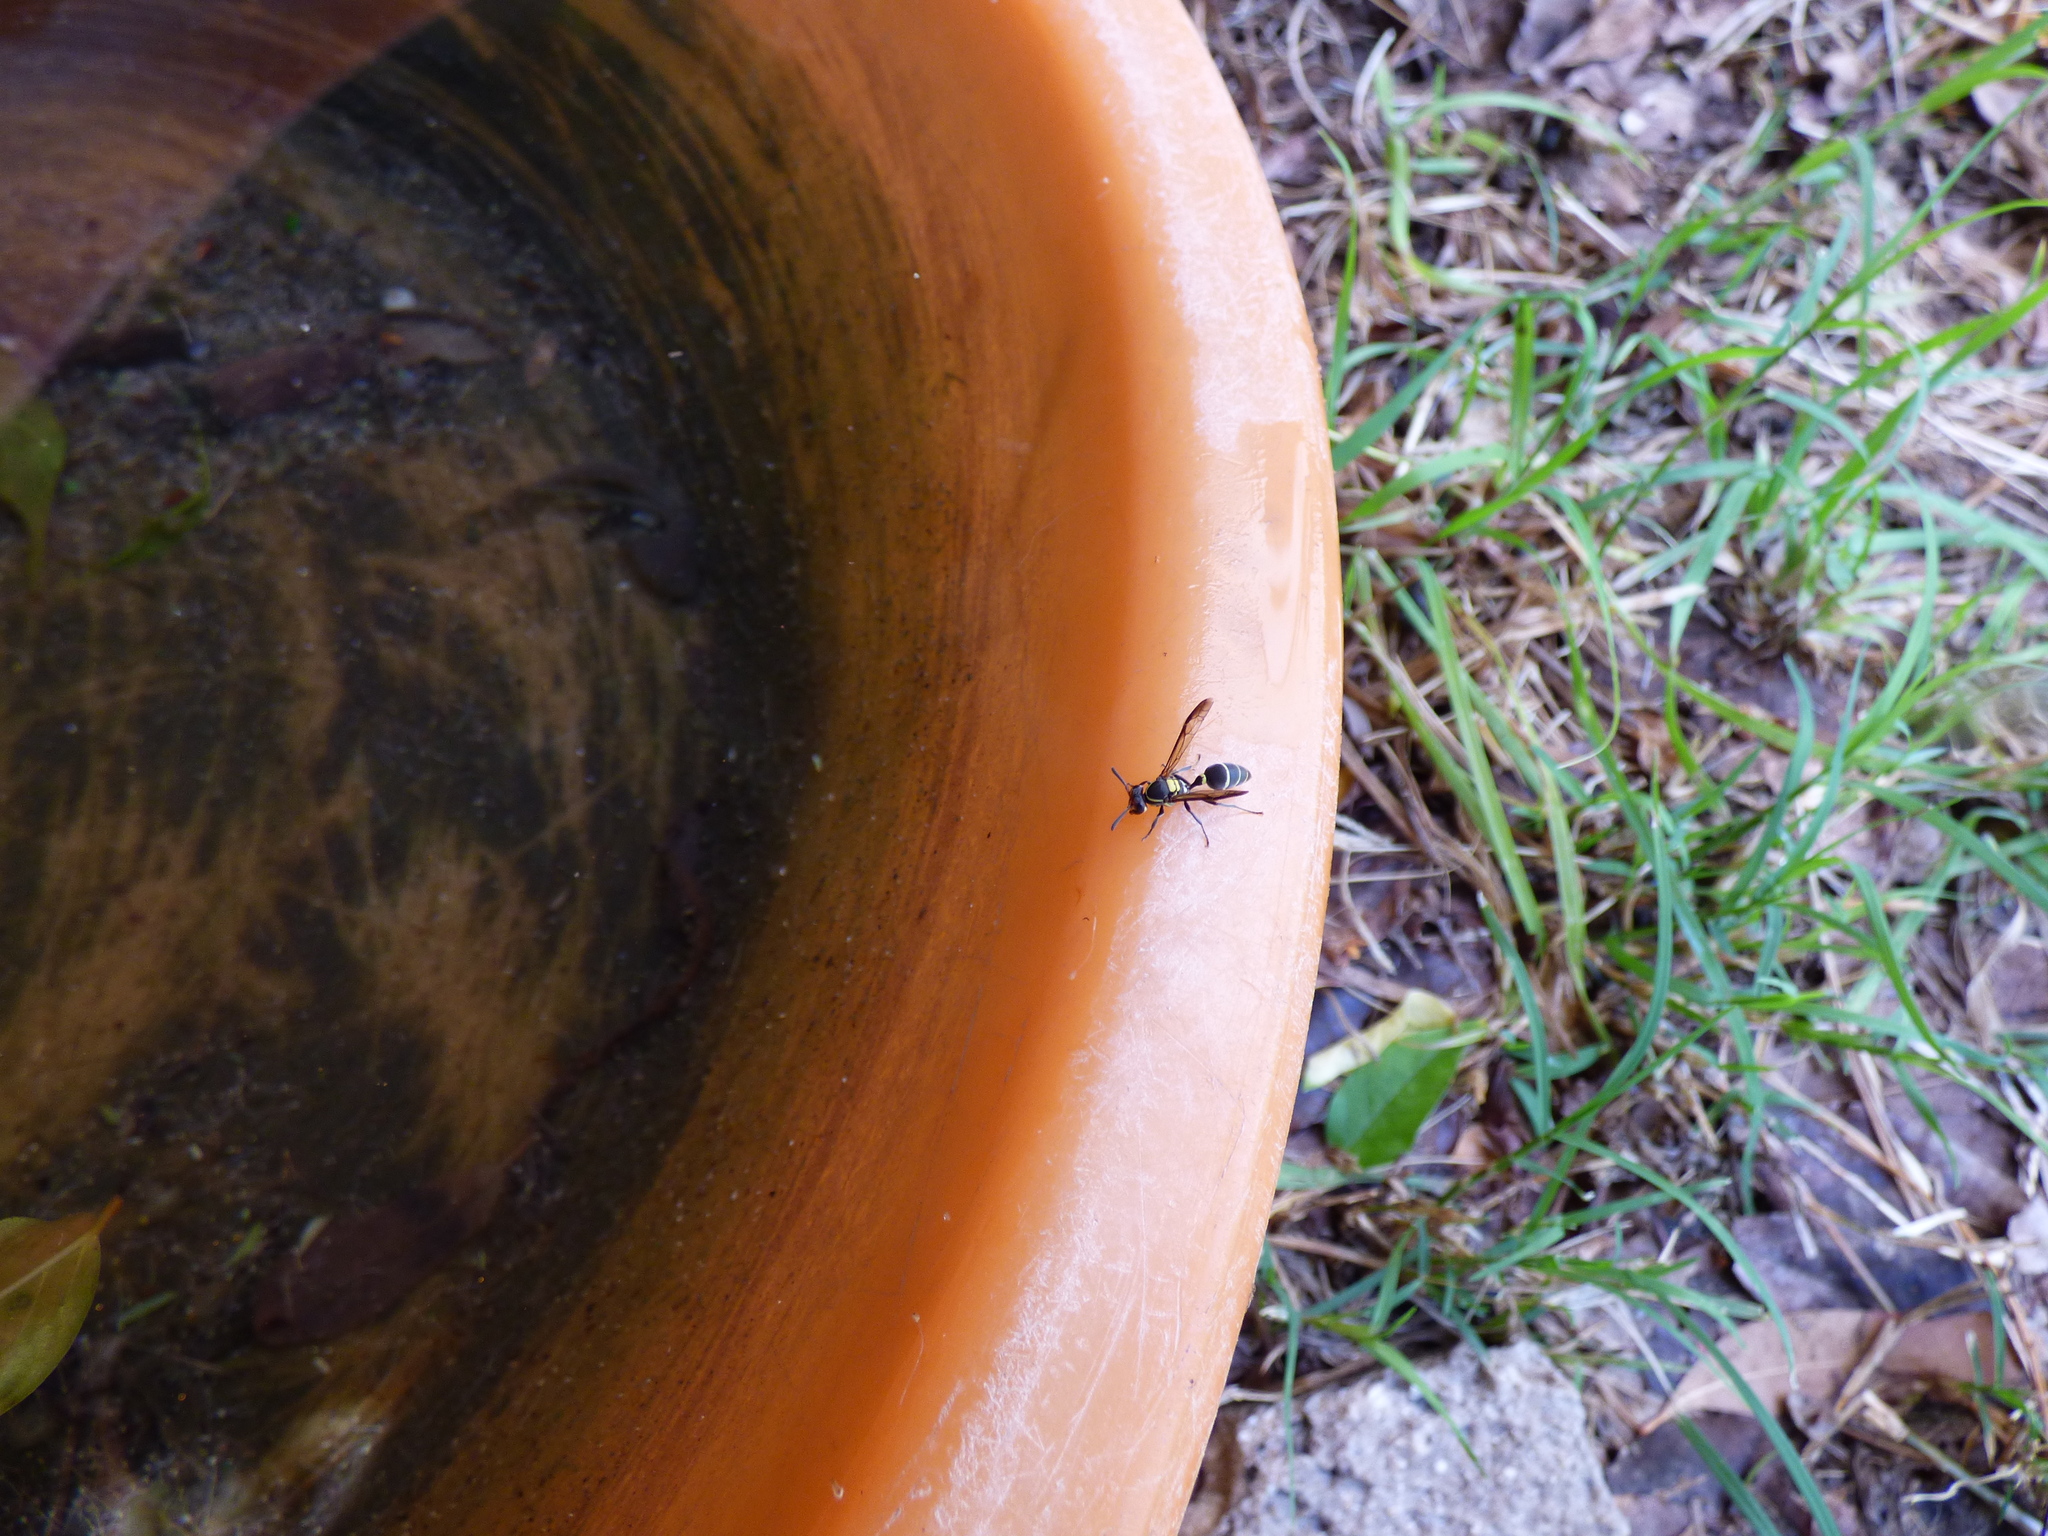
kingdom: Animalia
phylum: Arthropoda
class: Insecta
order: Hymenoptera
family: Eumenidae
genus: Polybia
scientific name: Polybia ruficeps
